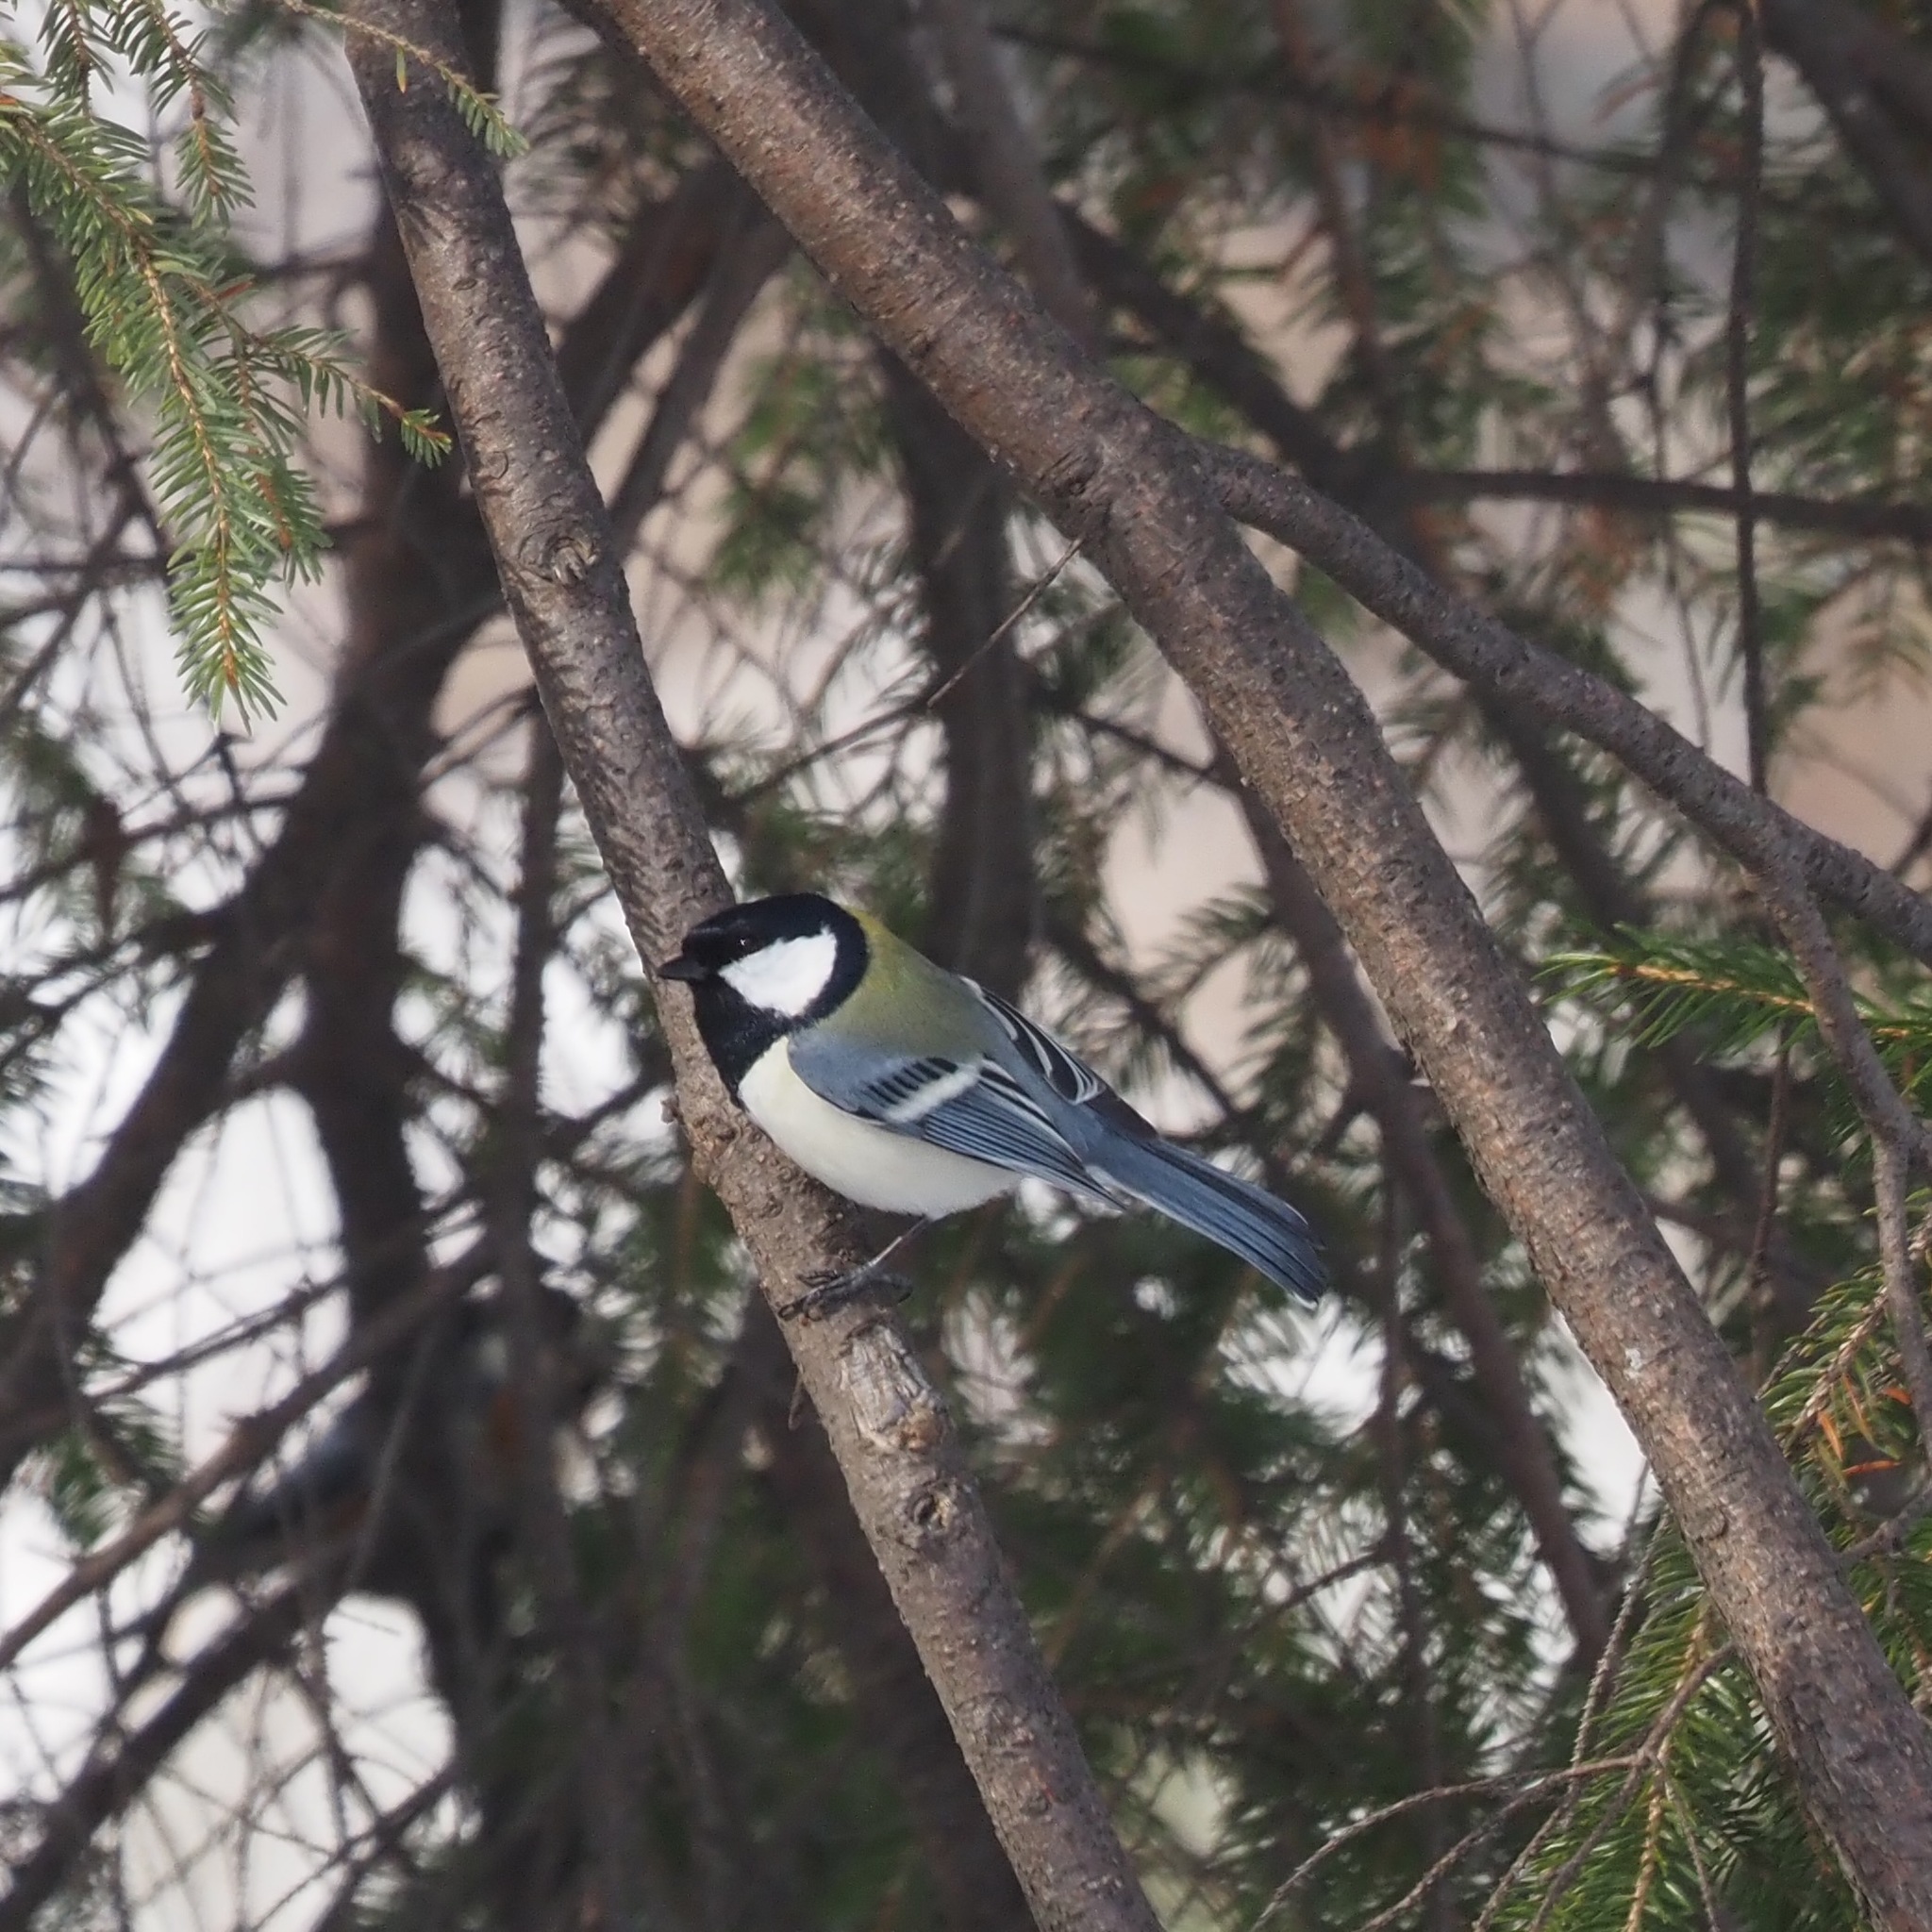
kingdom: Animalia
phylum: Chordata
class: Aves
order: Passeriformes
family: Paridae
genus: Parus
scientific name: Parus minor
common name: Japanese tit
